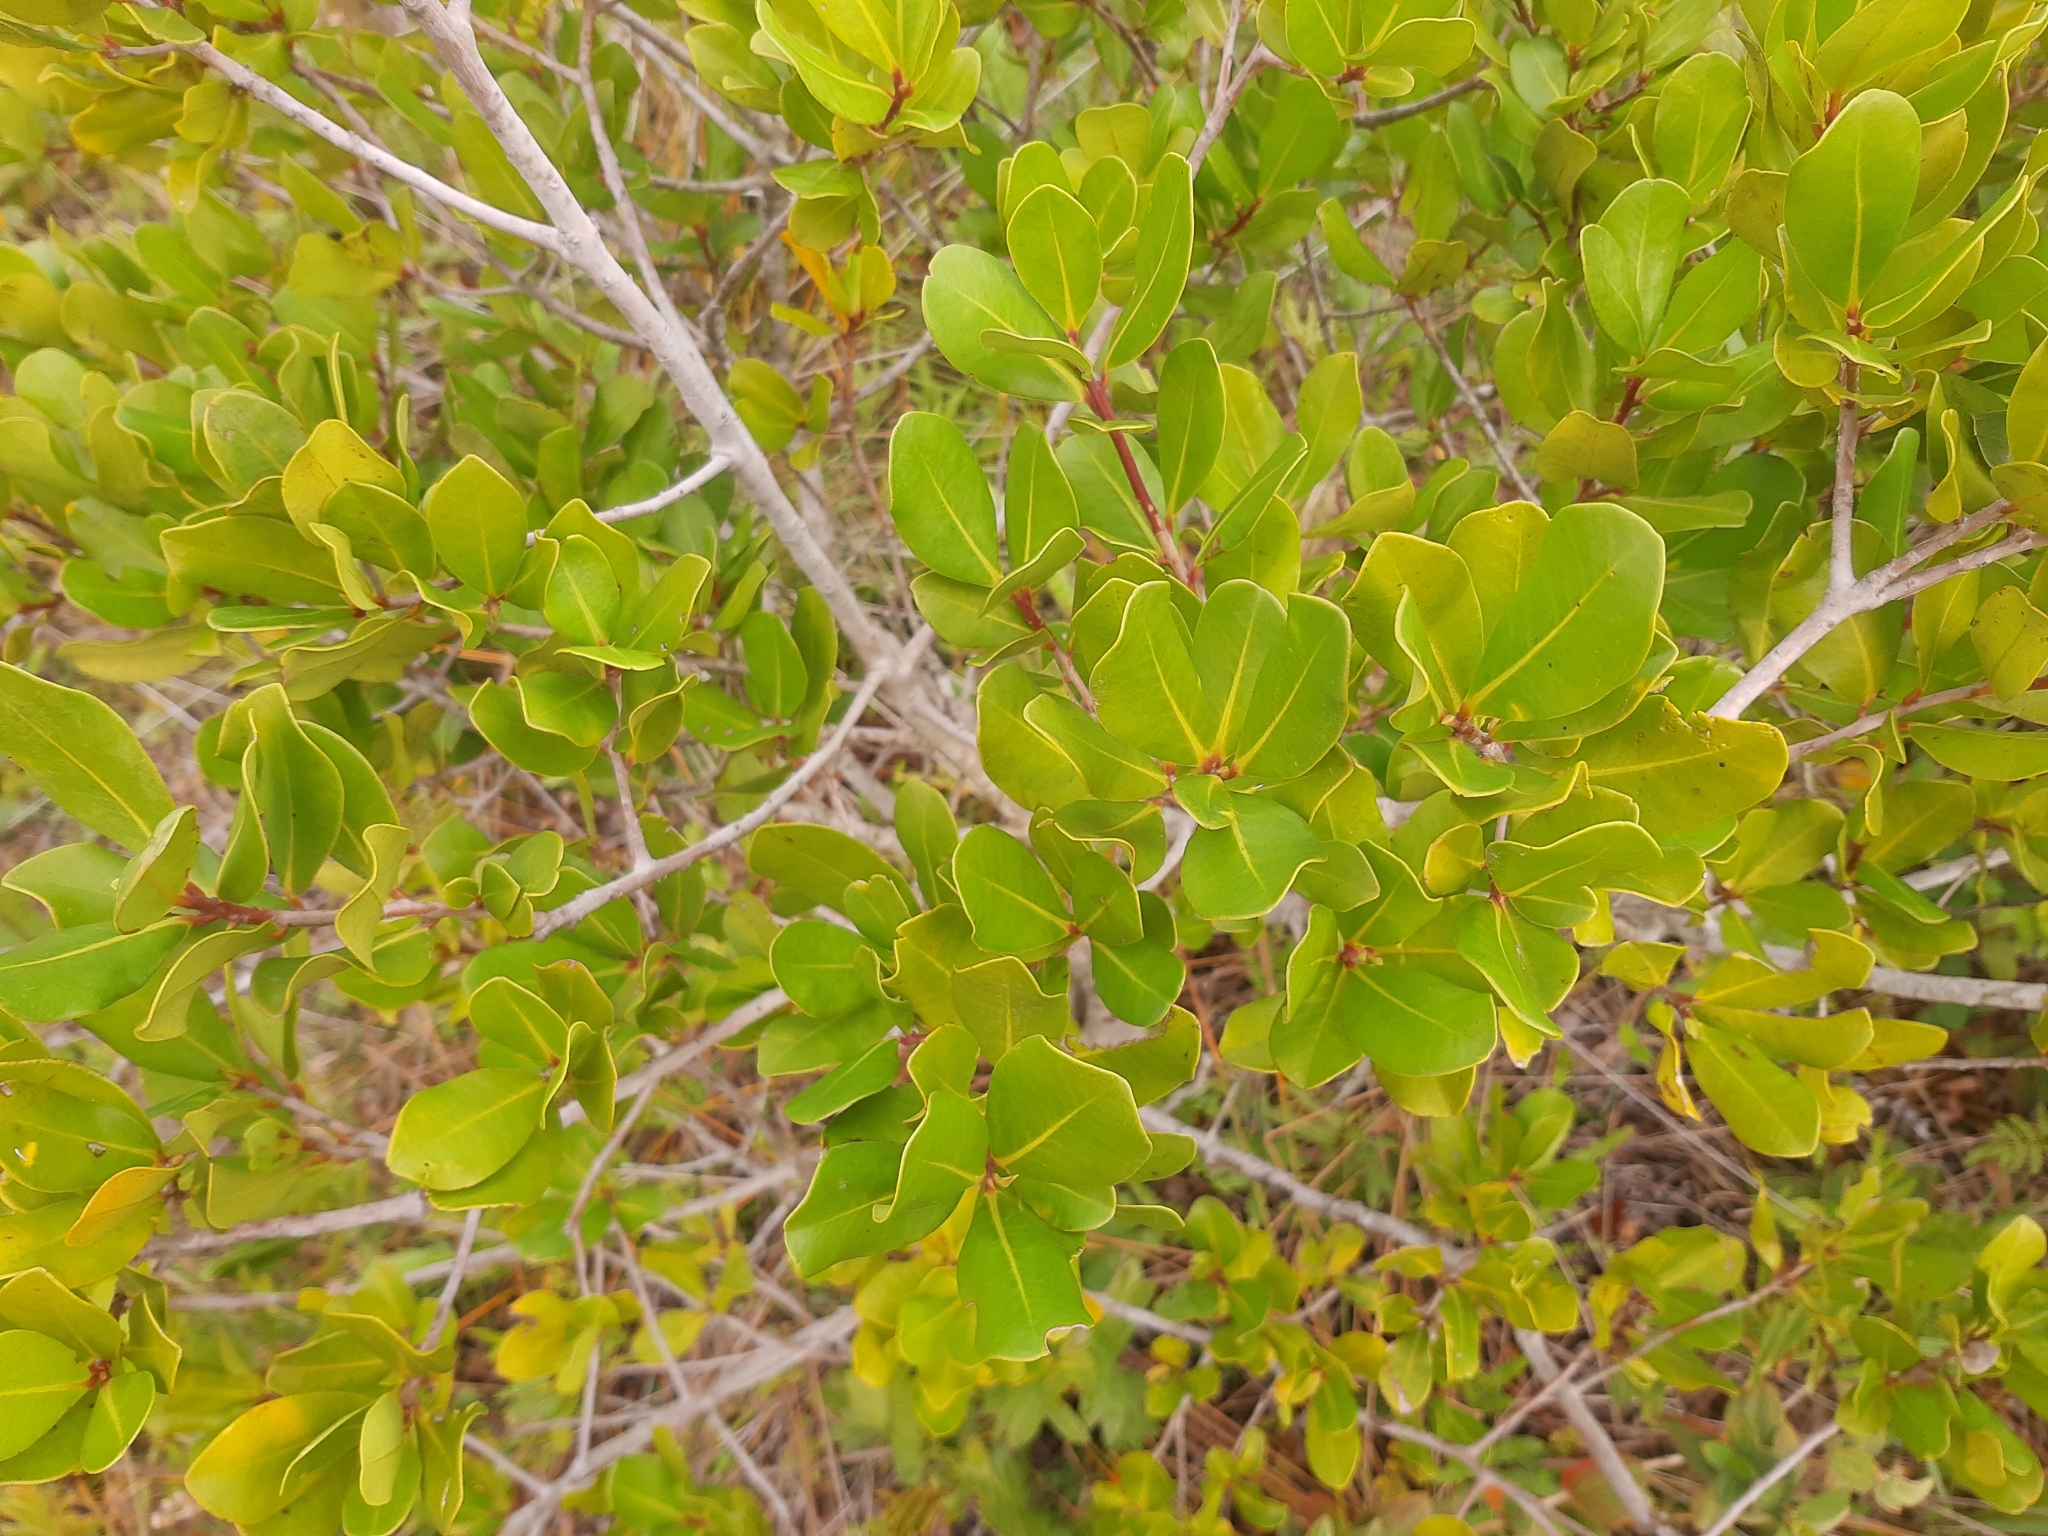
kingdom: Plantae
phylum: Tracheophyta
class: Magnoliopsida
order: Ericales
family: Primulaceae
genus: Myrsine
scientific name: Myrsine parvifolia
